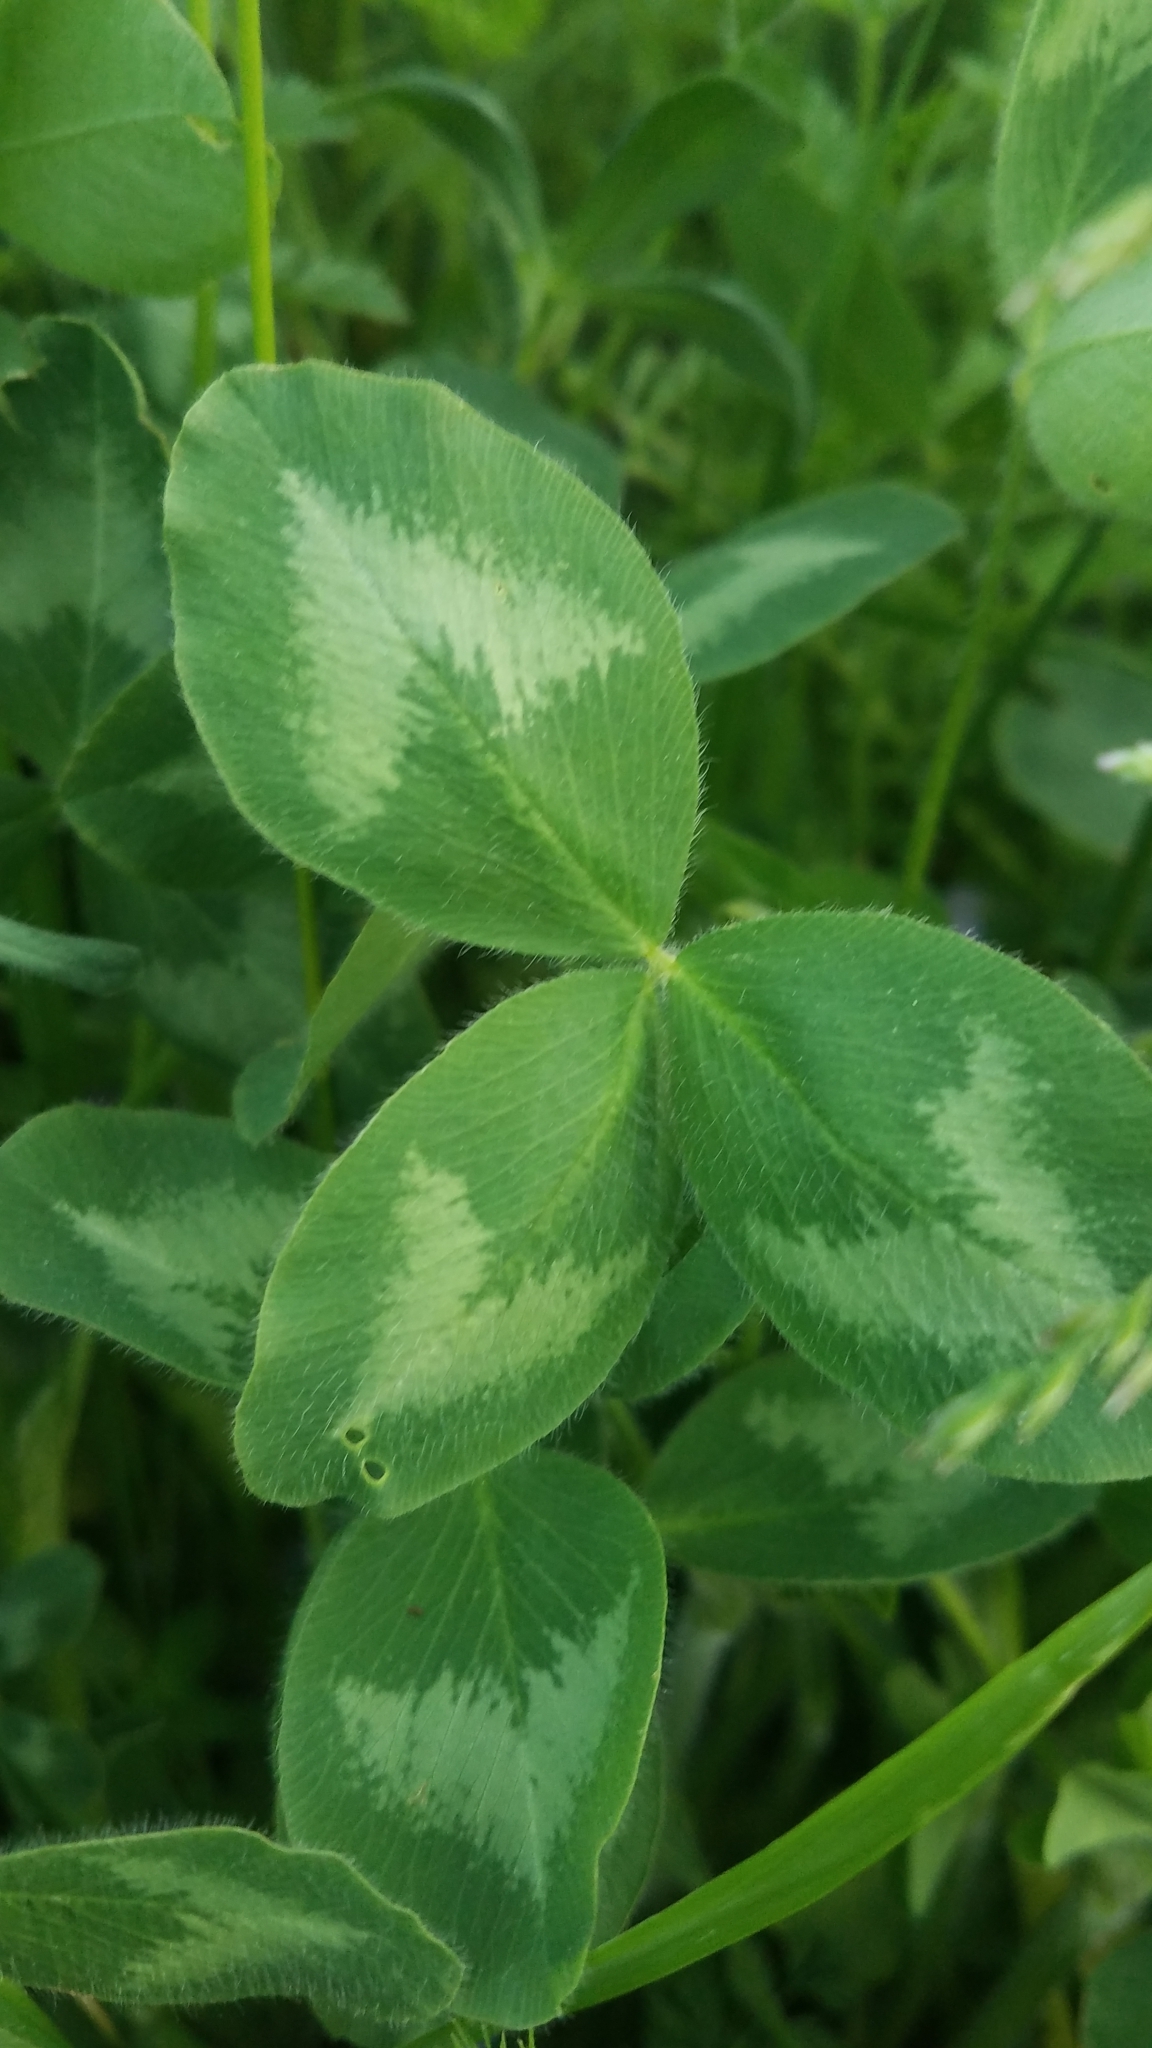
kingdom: Plantae
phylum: Tracheophyta
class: Magnoliopsida
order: Fabales
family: Fabaceae
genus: Trifolium
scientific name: Trifolium pratense
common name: Red clover
